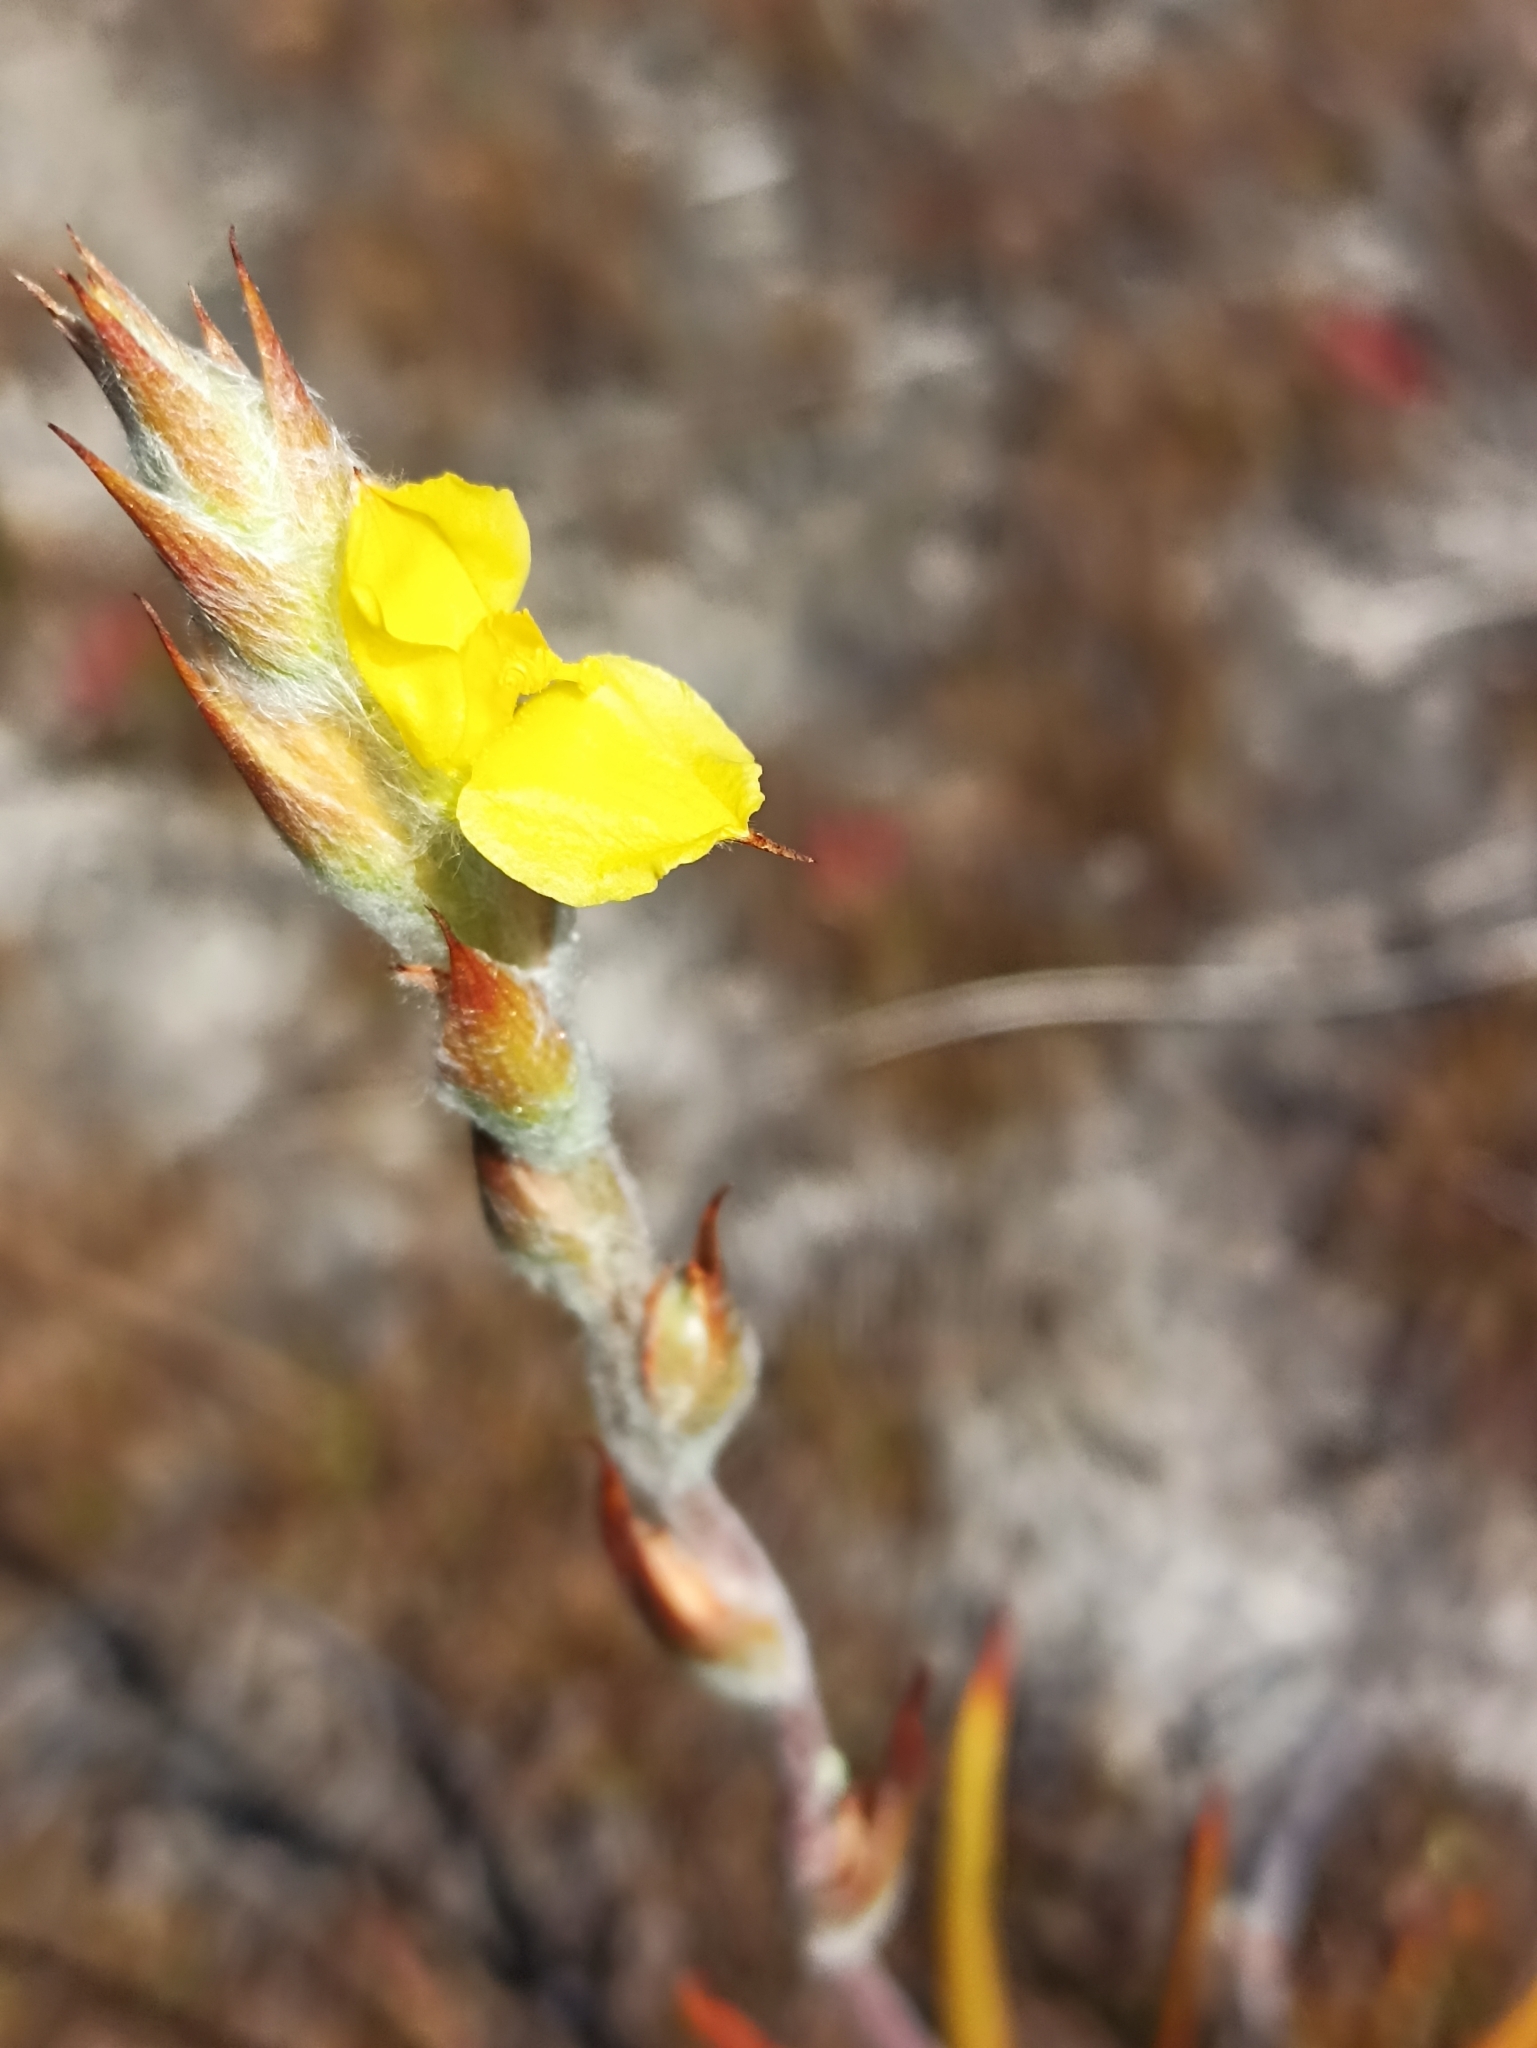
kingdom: Plantae
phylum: Tracheophyta
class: Liliopsida
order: Commelinales
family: Philydraceae
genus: Philydrum
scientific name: Philydrum lanuginosum
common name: Woolly frog's mouth
